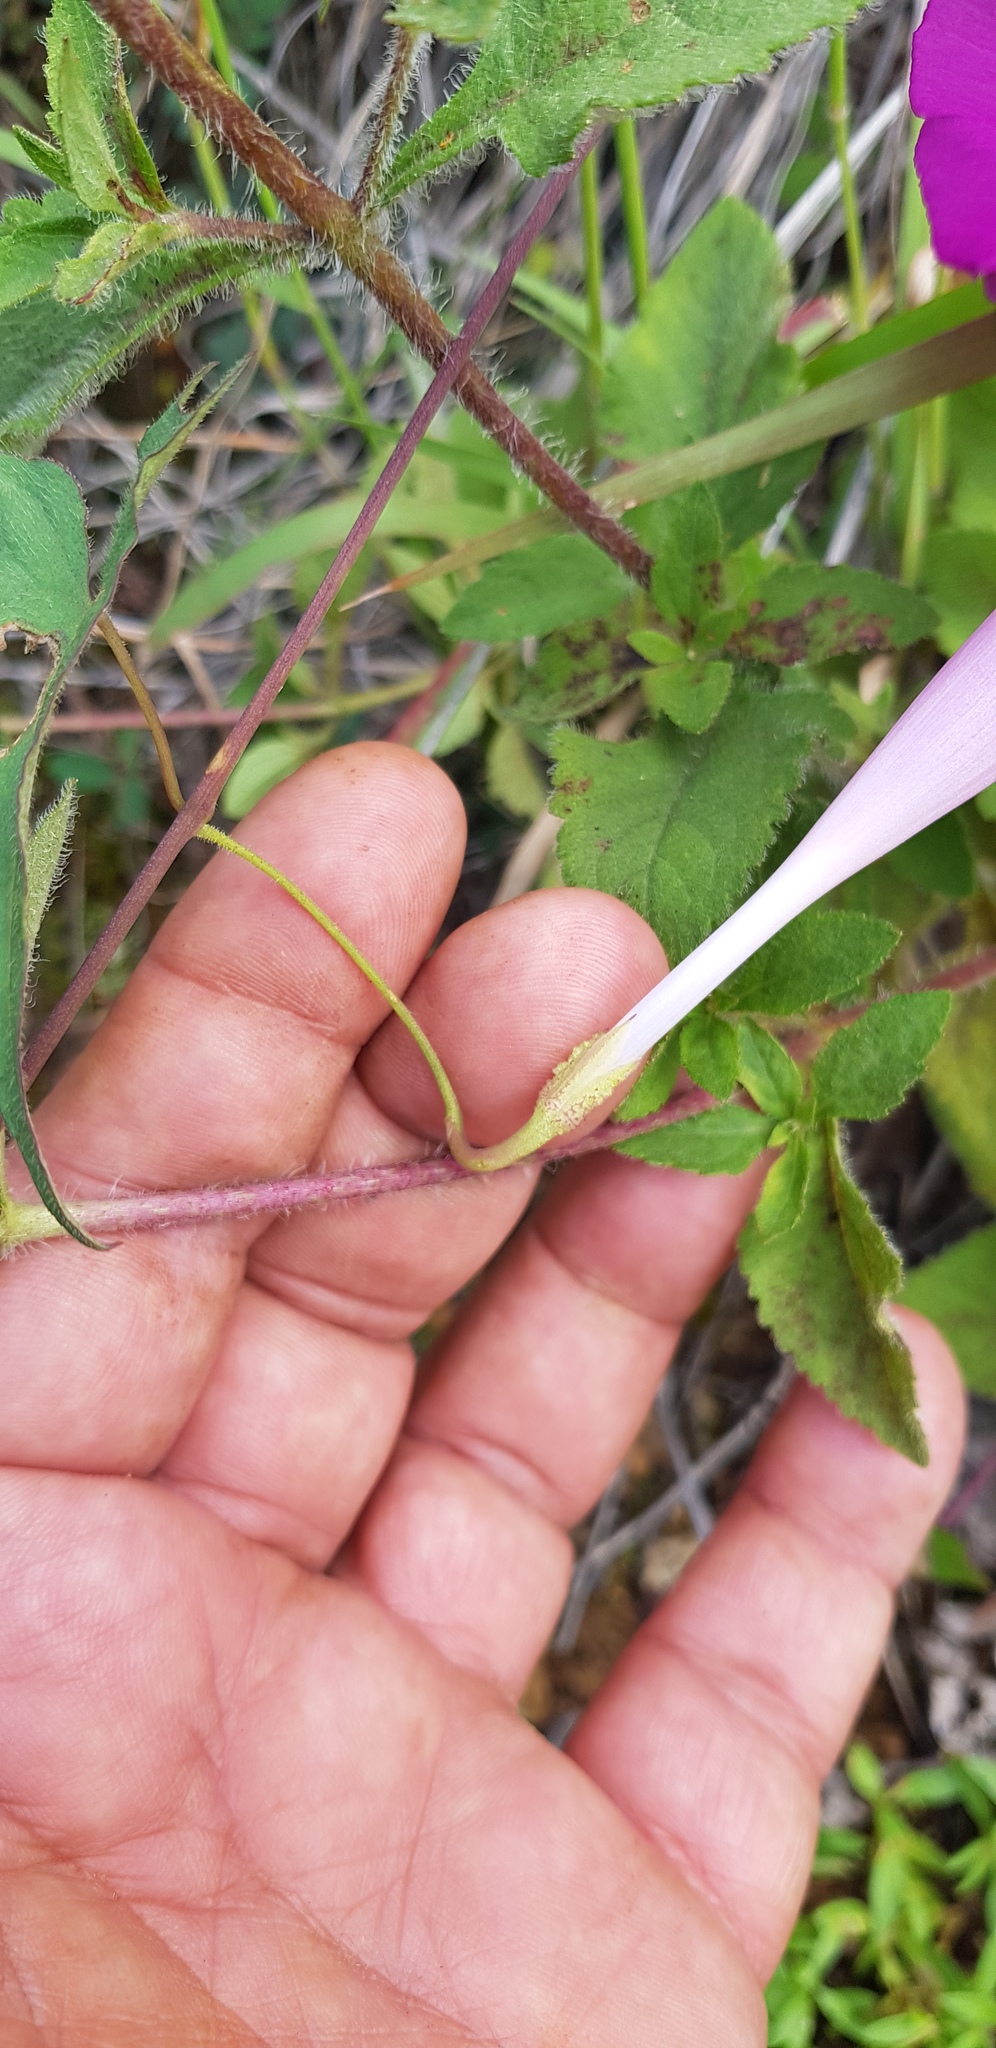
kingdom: Plantae
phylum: Tracheophyta
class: Magnoliopsida
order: Solanales
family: Convolvulaceae
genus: Ipomoea
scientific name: Ipomoea elongata
